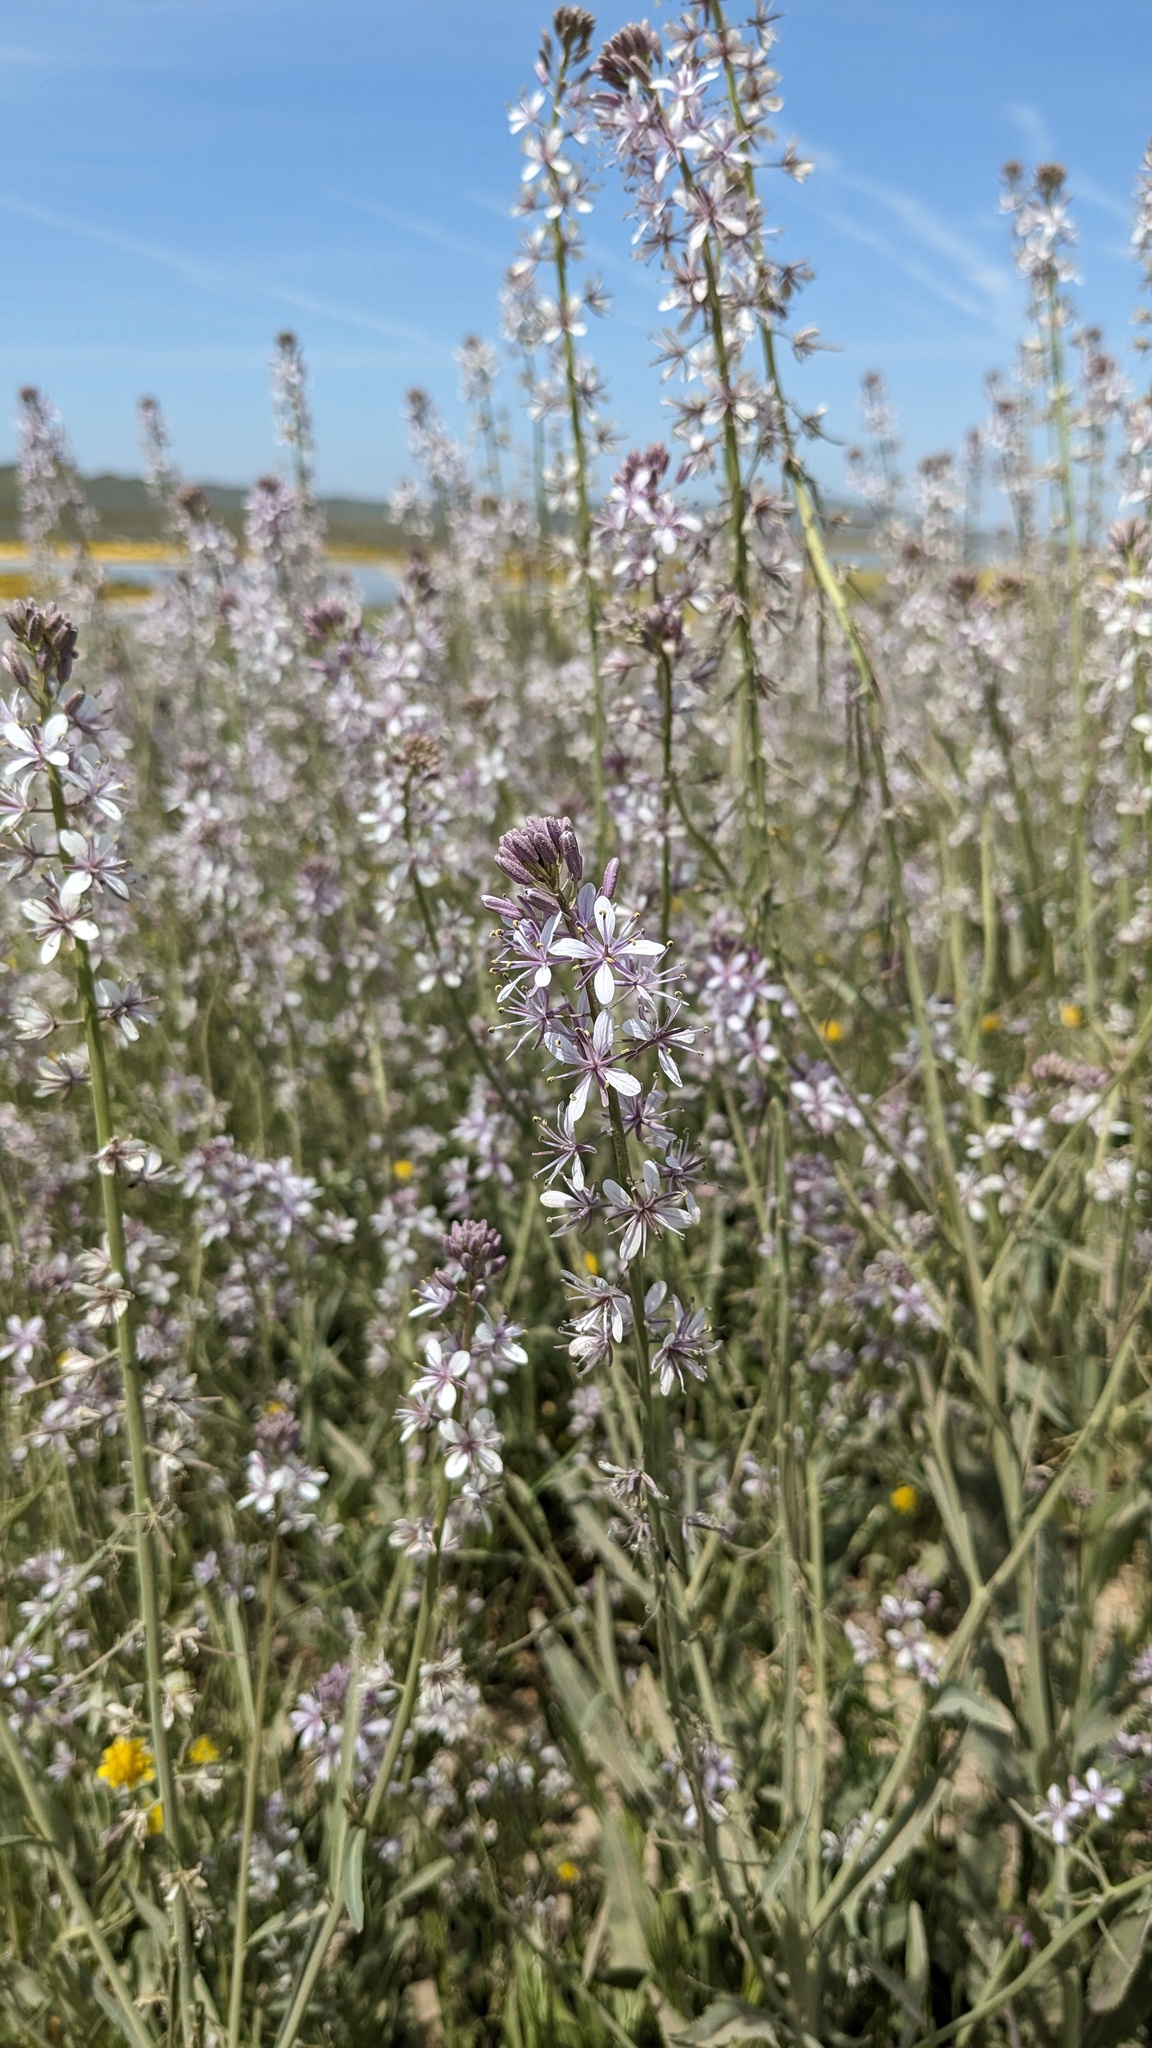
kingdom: Plantae
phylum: Tracheophyta
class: Magnoliopsida
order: Brassicales
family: Brassicaceae
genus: Streptanthus
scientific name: Streptanthus anceps
